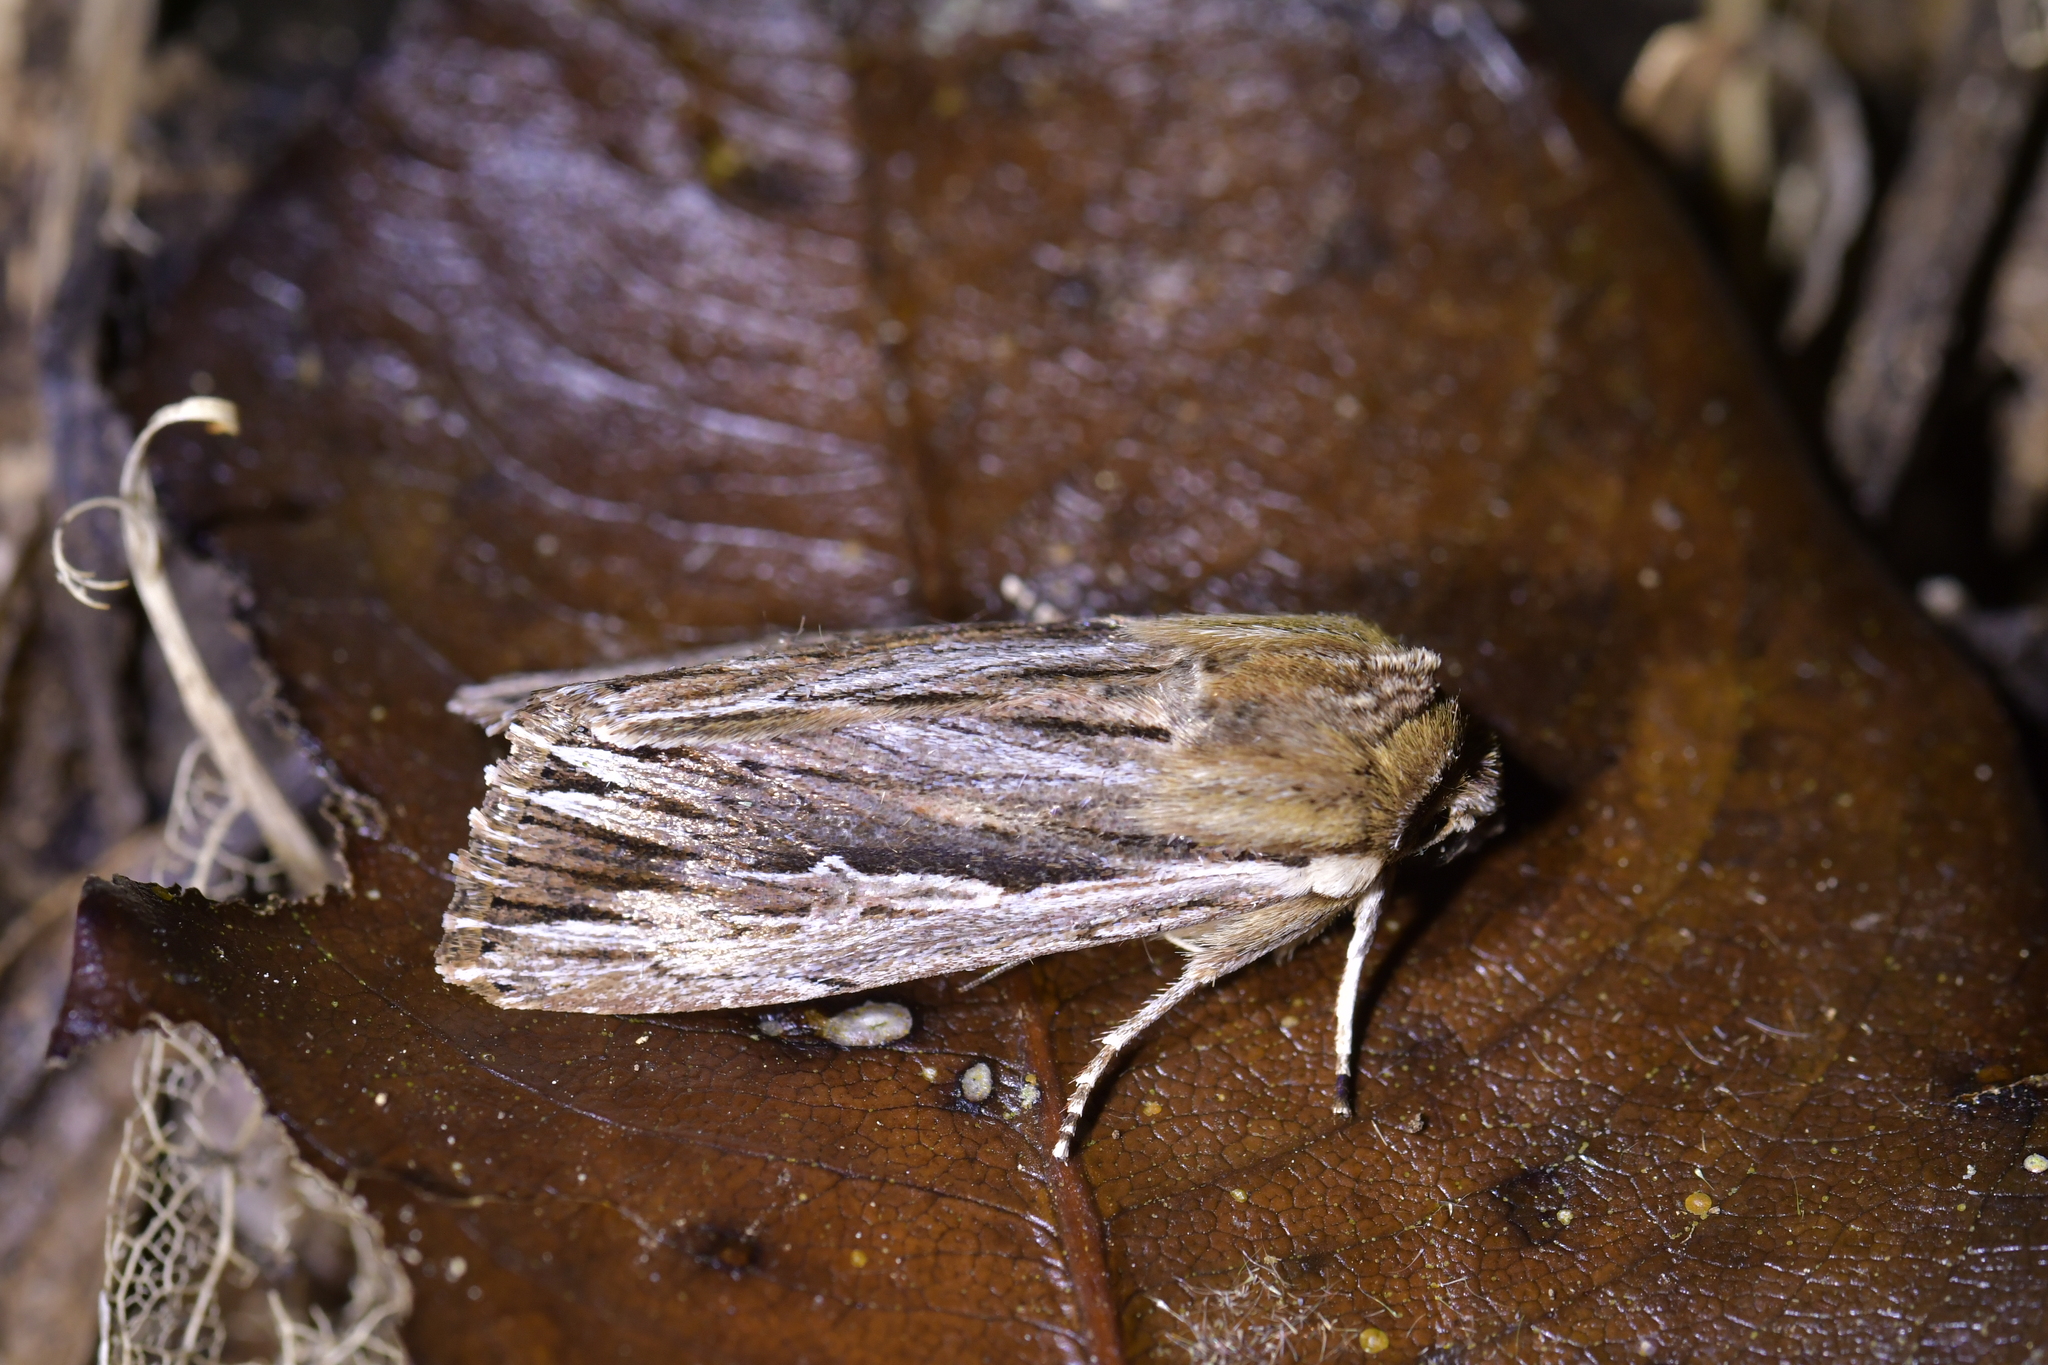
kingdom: Animalia
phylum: Arthropoda
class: Insecta
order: Lepidoptera
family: Noctuidae
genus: Persectania
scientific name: Persectania aversa
